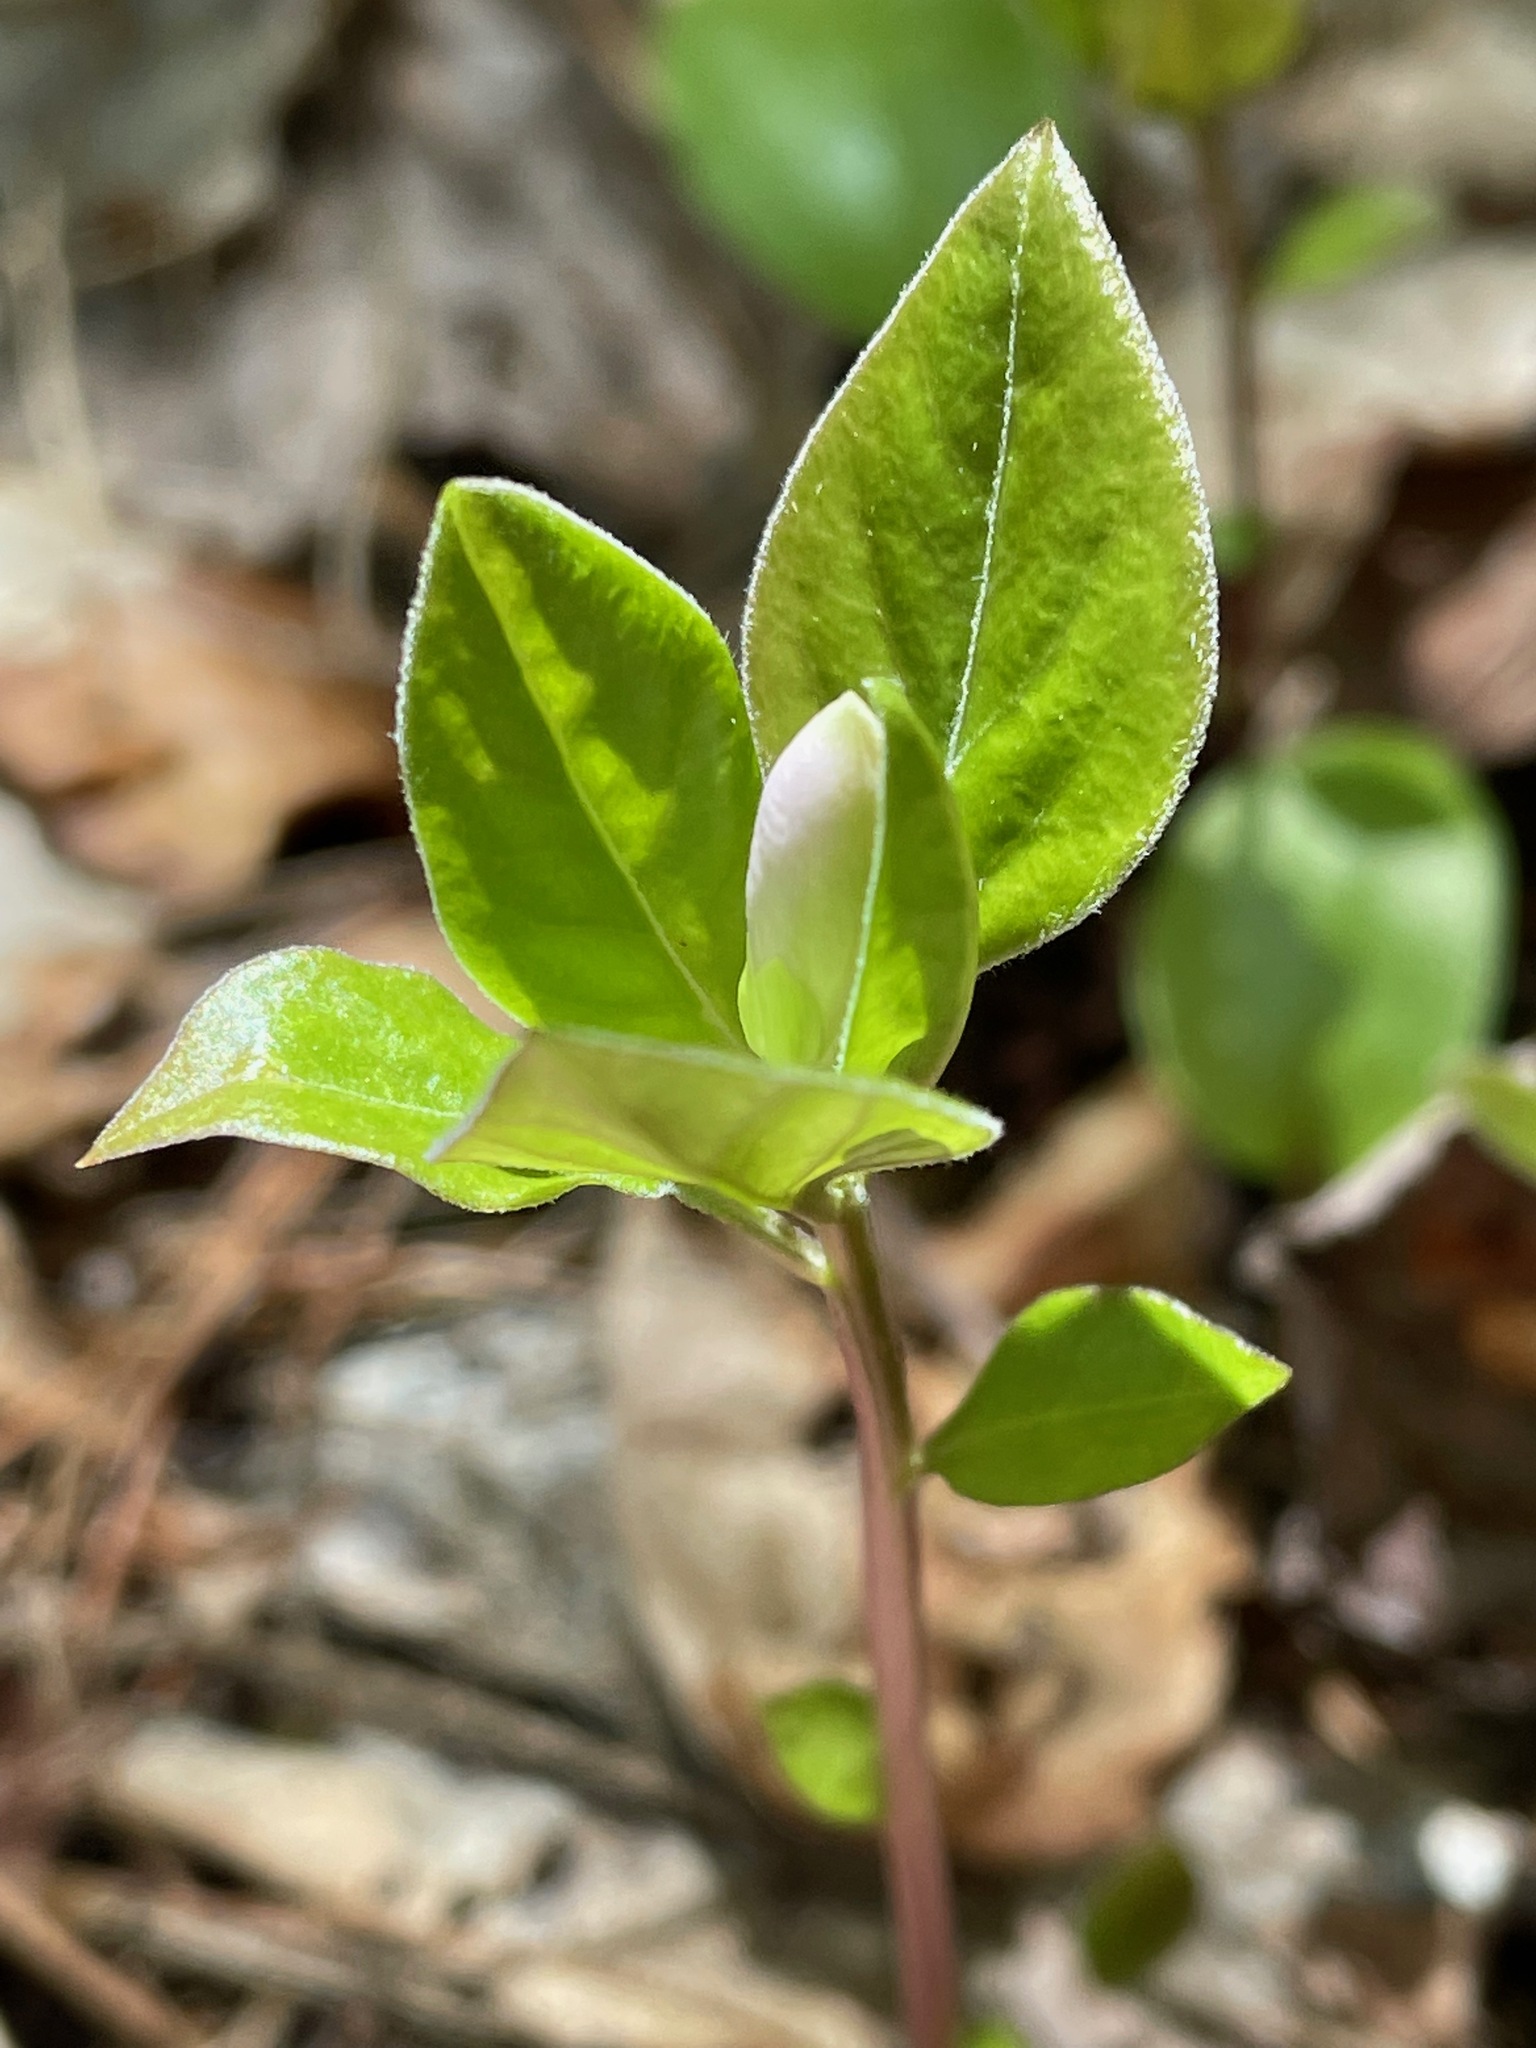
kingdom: Plantae
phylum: Tracheophyta
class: Magnoliopsida
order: Fabales
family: Polygalaceae
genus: Polygaloides
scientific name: Polygaloides paucifolia
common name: Bird-on-the-wing
